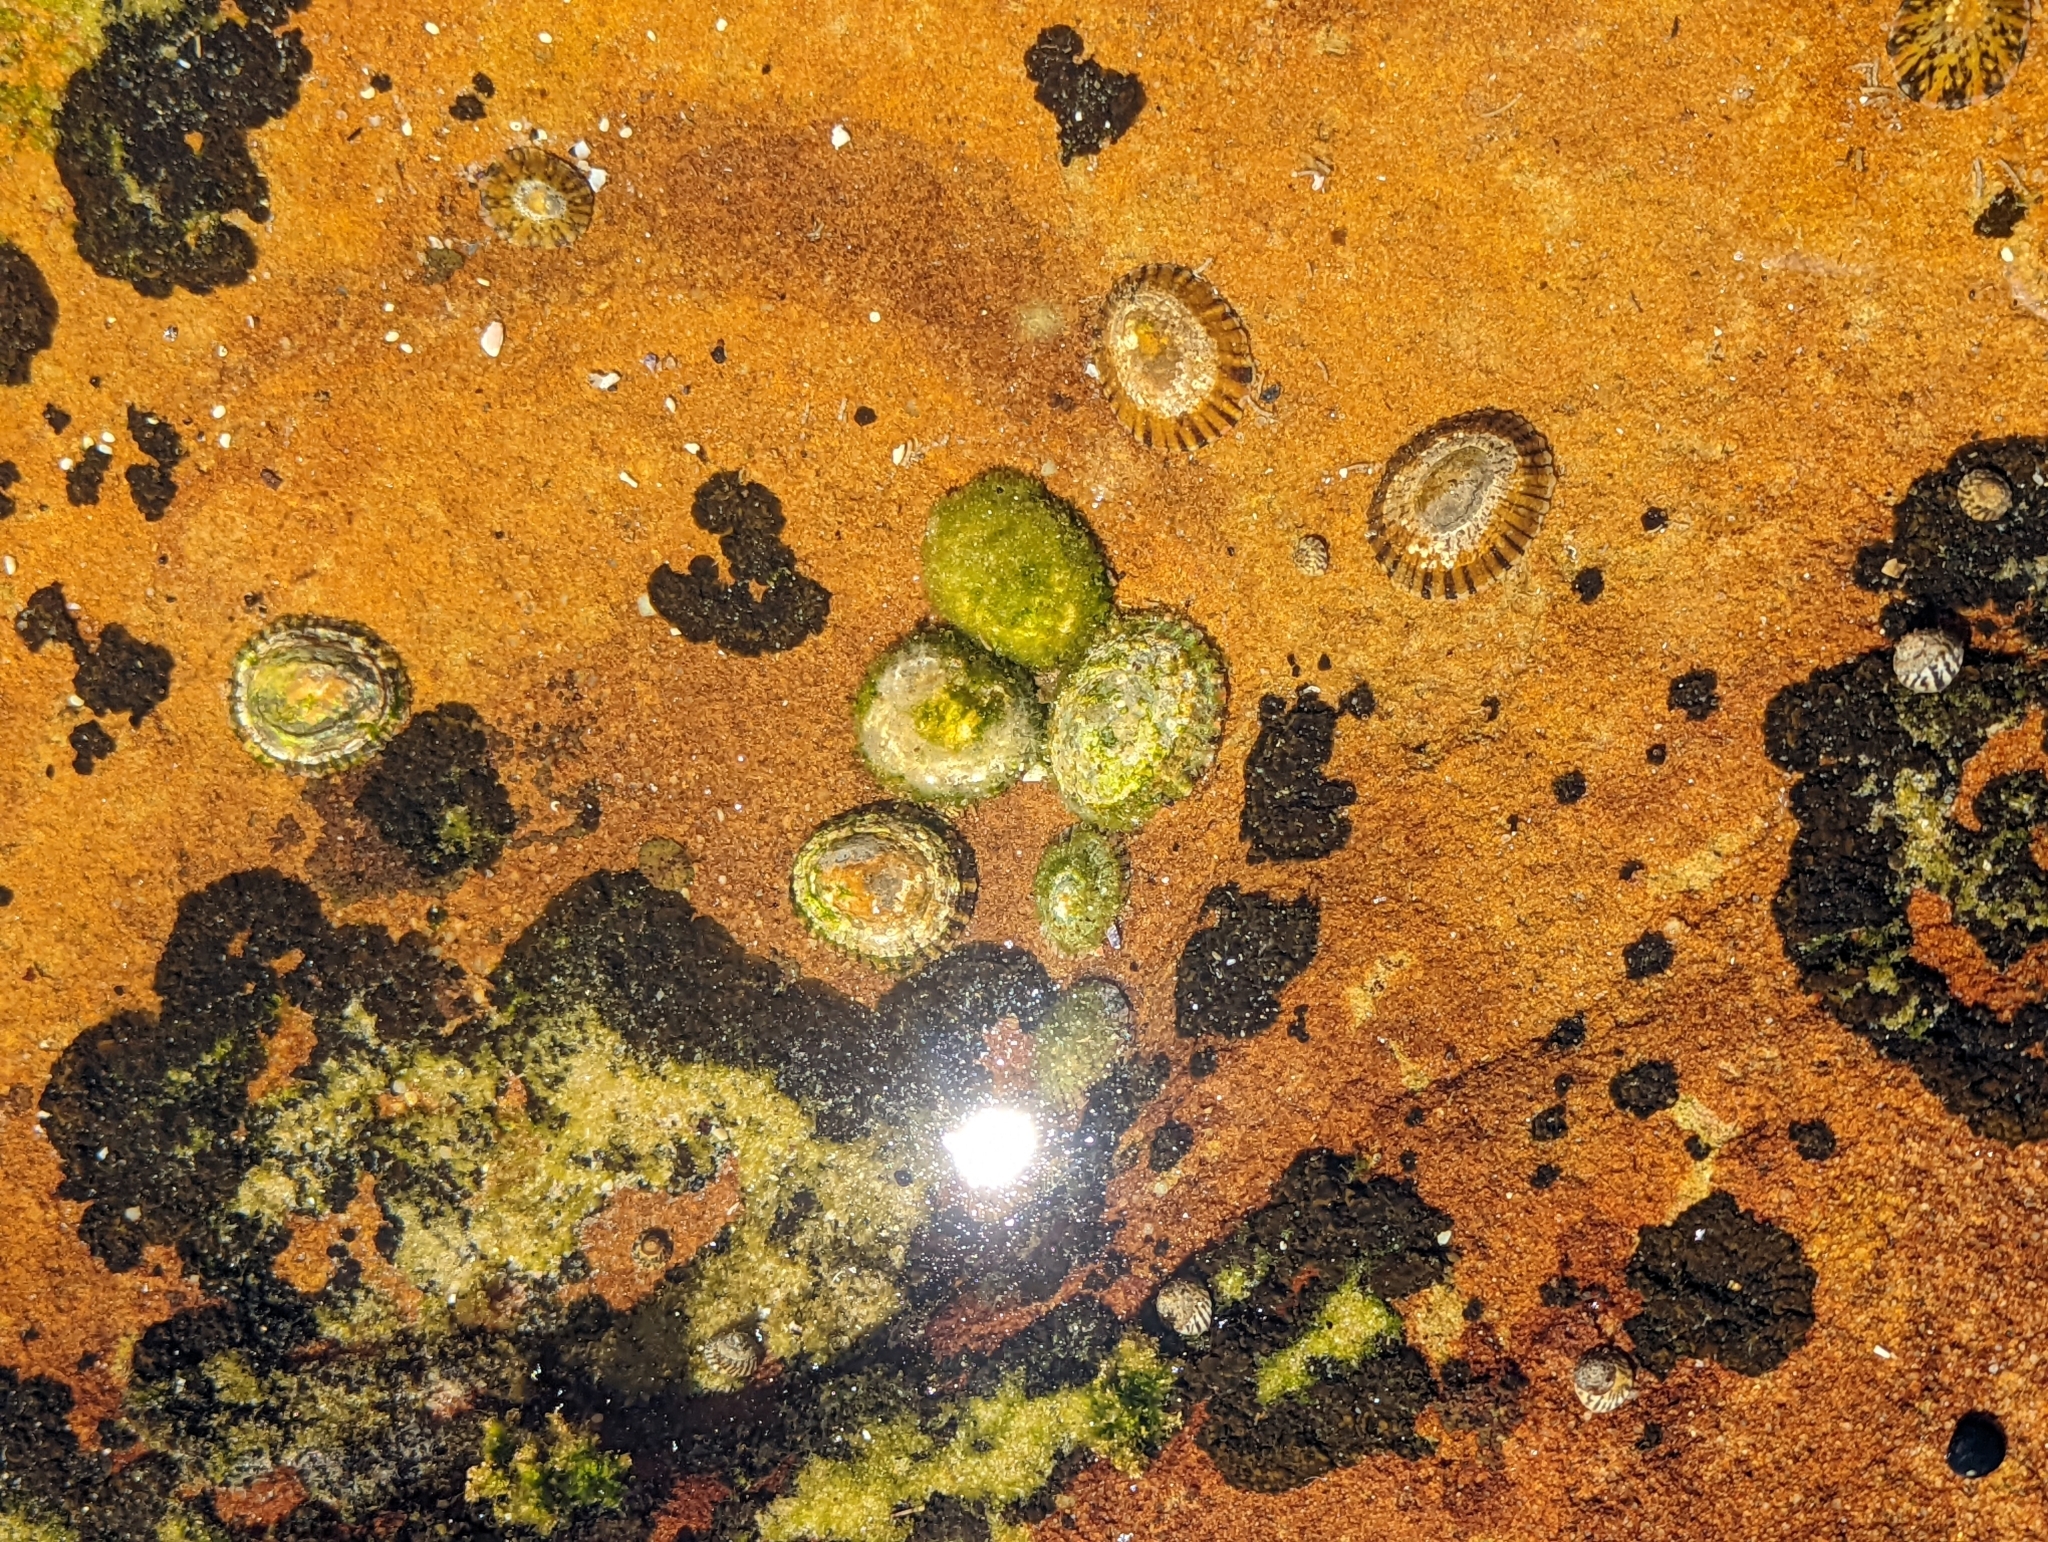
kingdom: Animalia
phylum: Mollusca
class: Gastropoda
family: Nacellidae
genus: Cellana
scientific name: Cellana tramoserica
